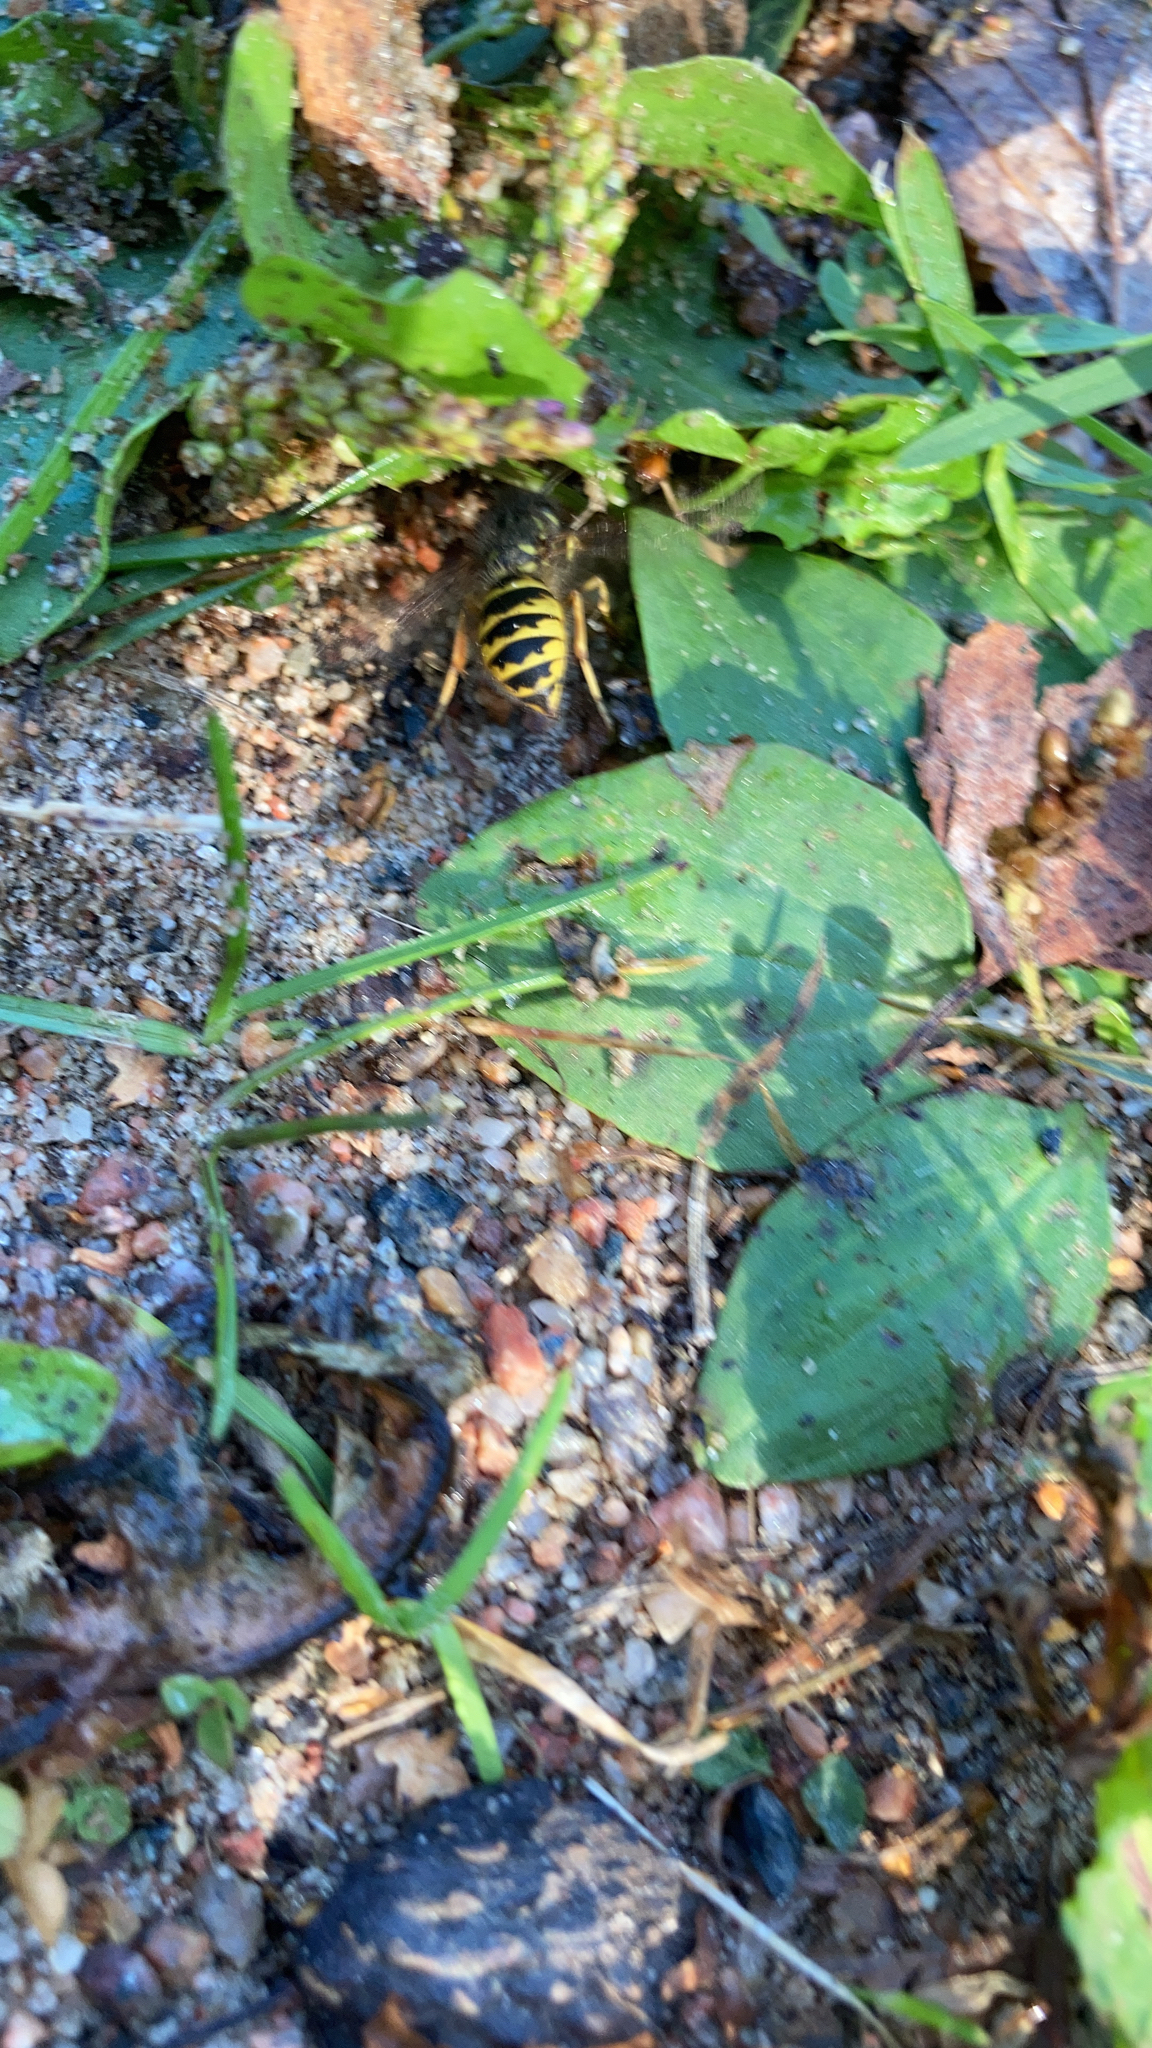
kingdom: Animalia
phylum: Arthropoda
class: Insecta
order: Hymenoptera
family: Vespidae
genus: Vespula
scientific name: Vespula vulgaris
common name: Common wasp
